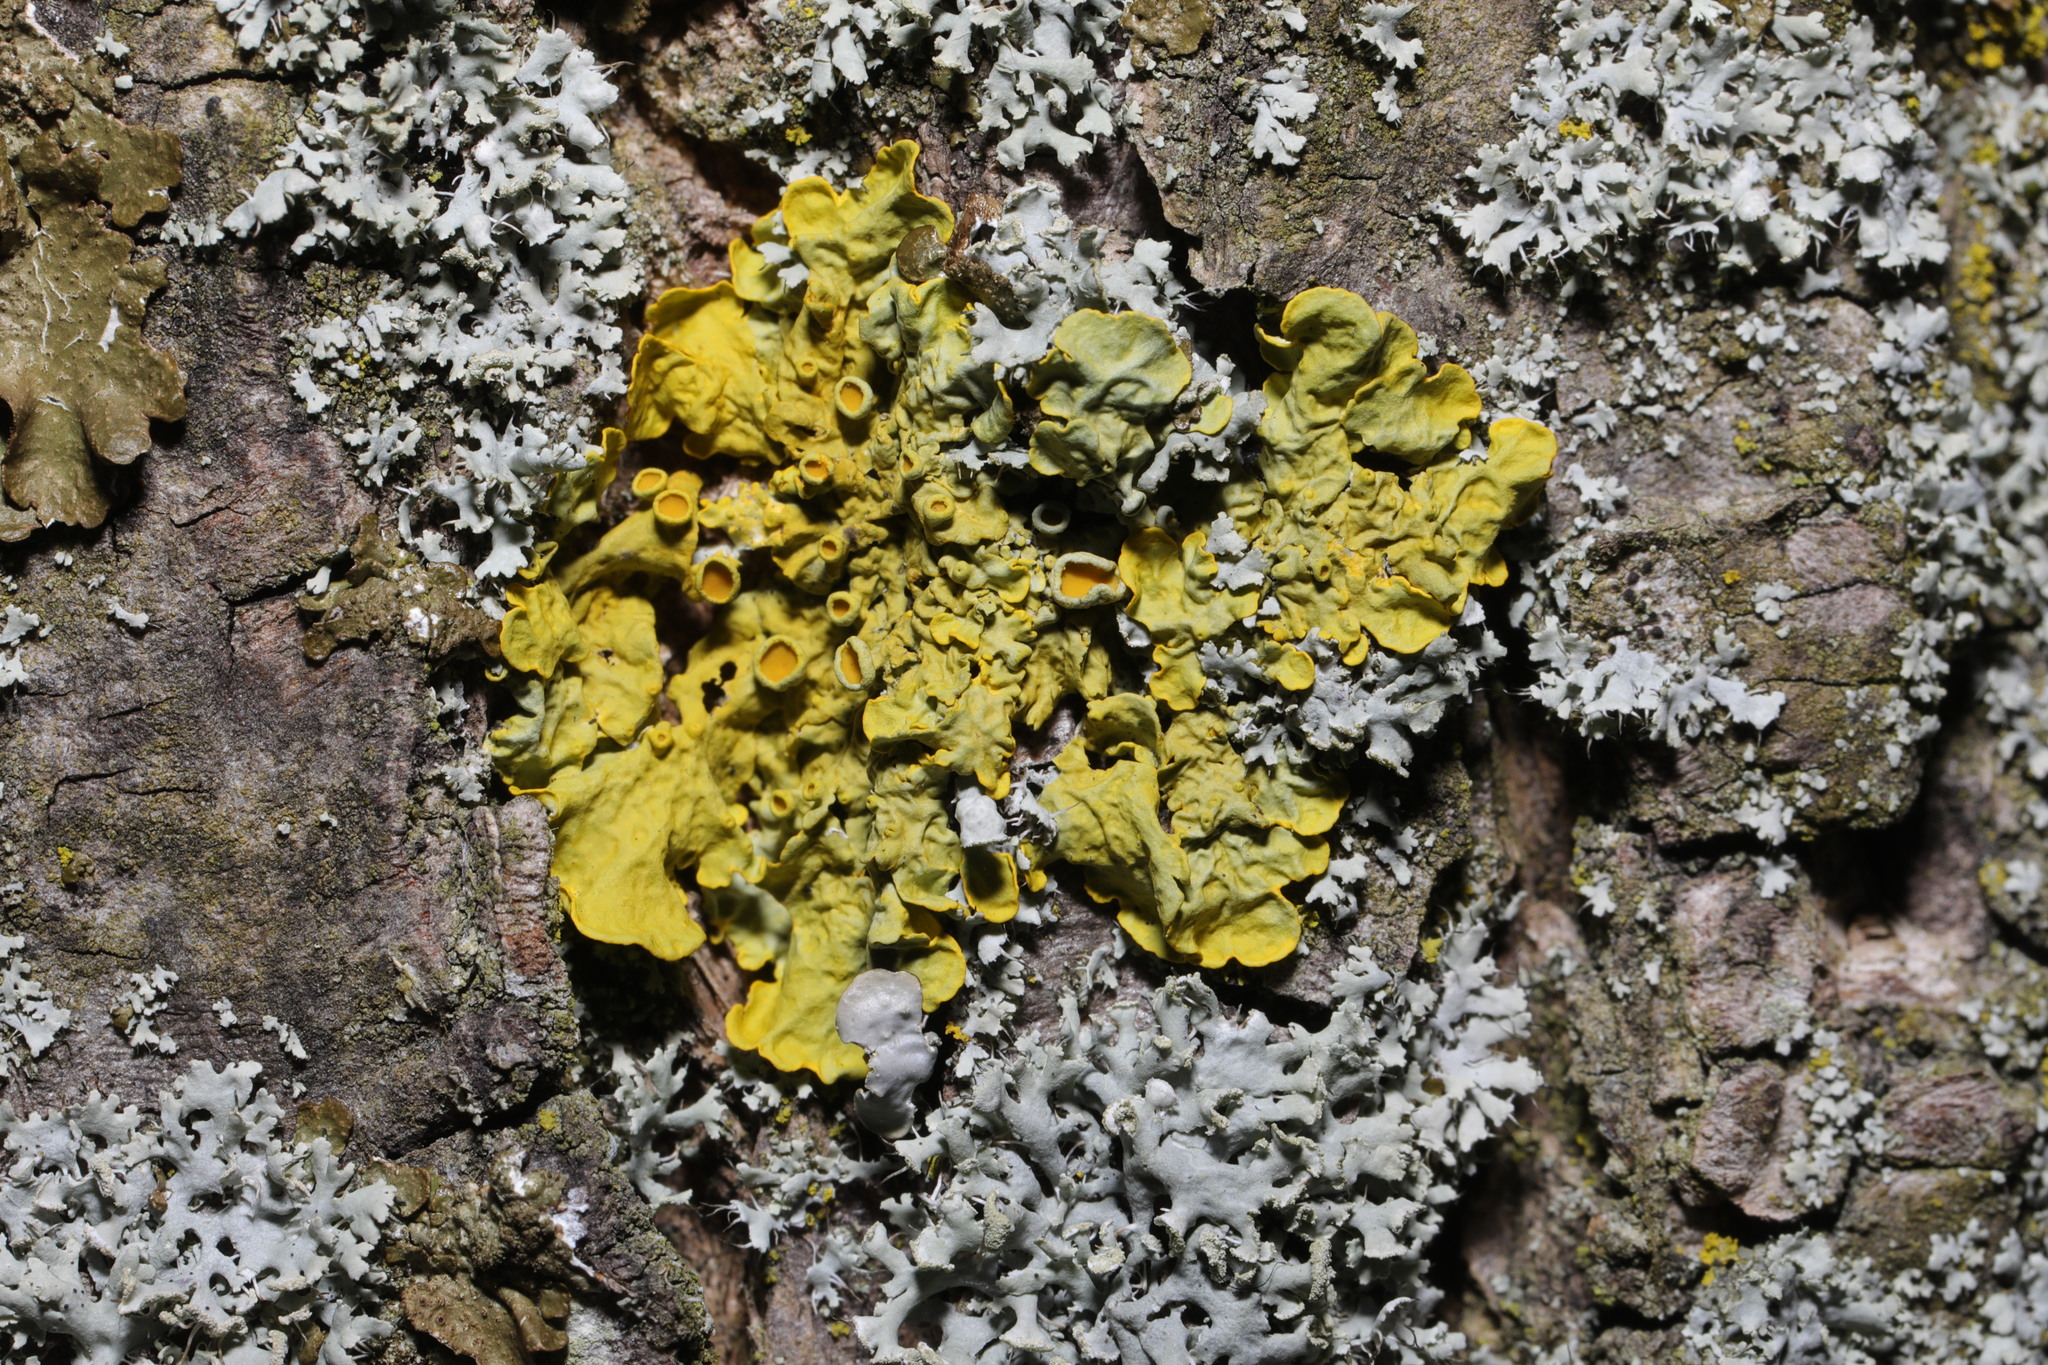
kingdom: Fungi
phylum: Ascomycota
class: Lecanoromycetes
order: Teloschistales
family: Teloschistaceae
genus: Xanthoria
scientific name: Xanthoria parietina
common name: Common orange lichen
